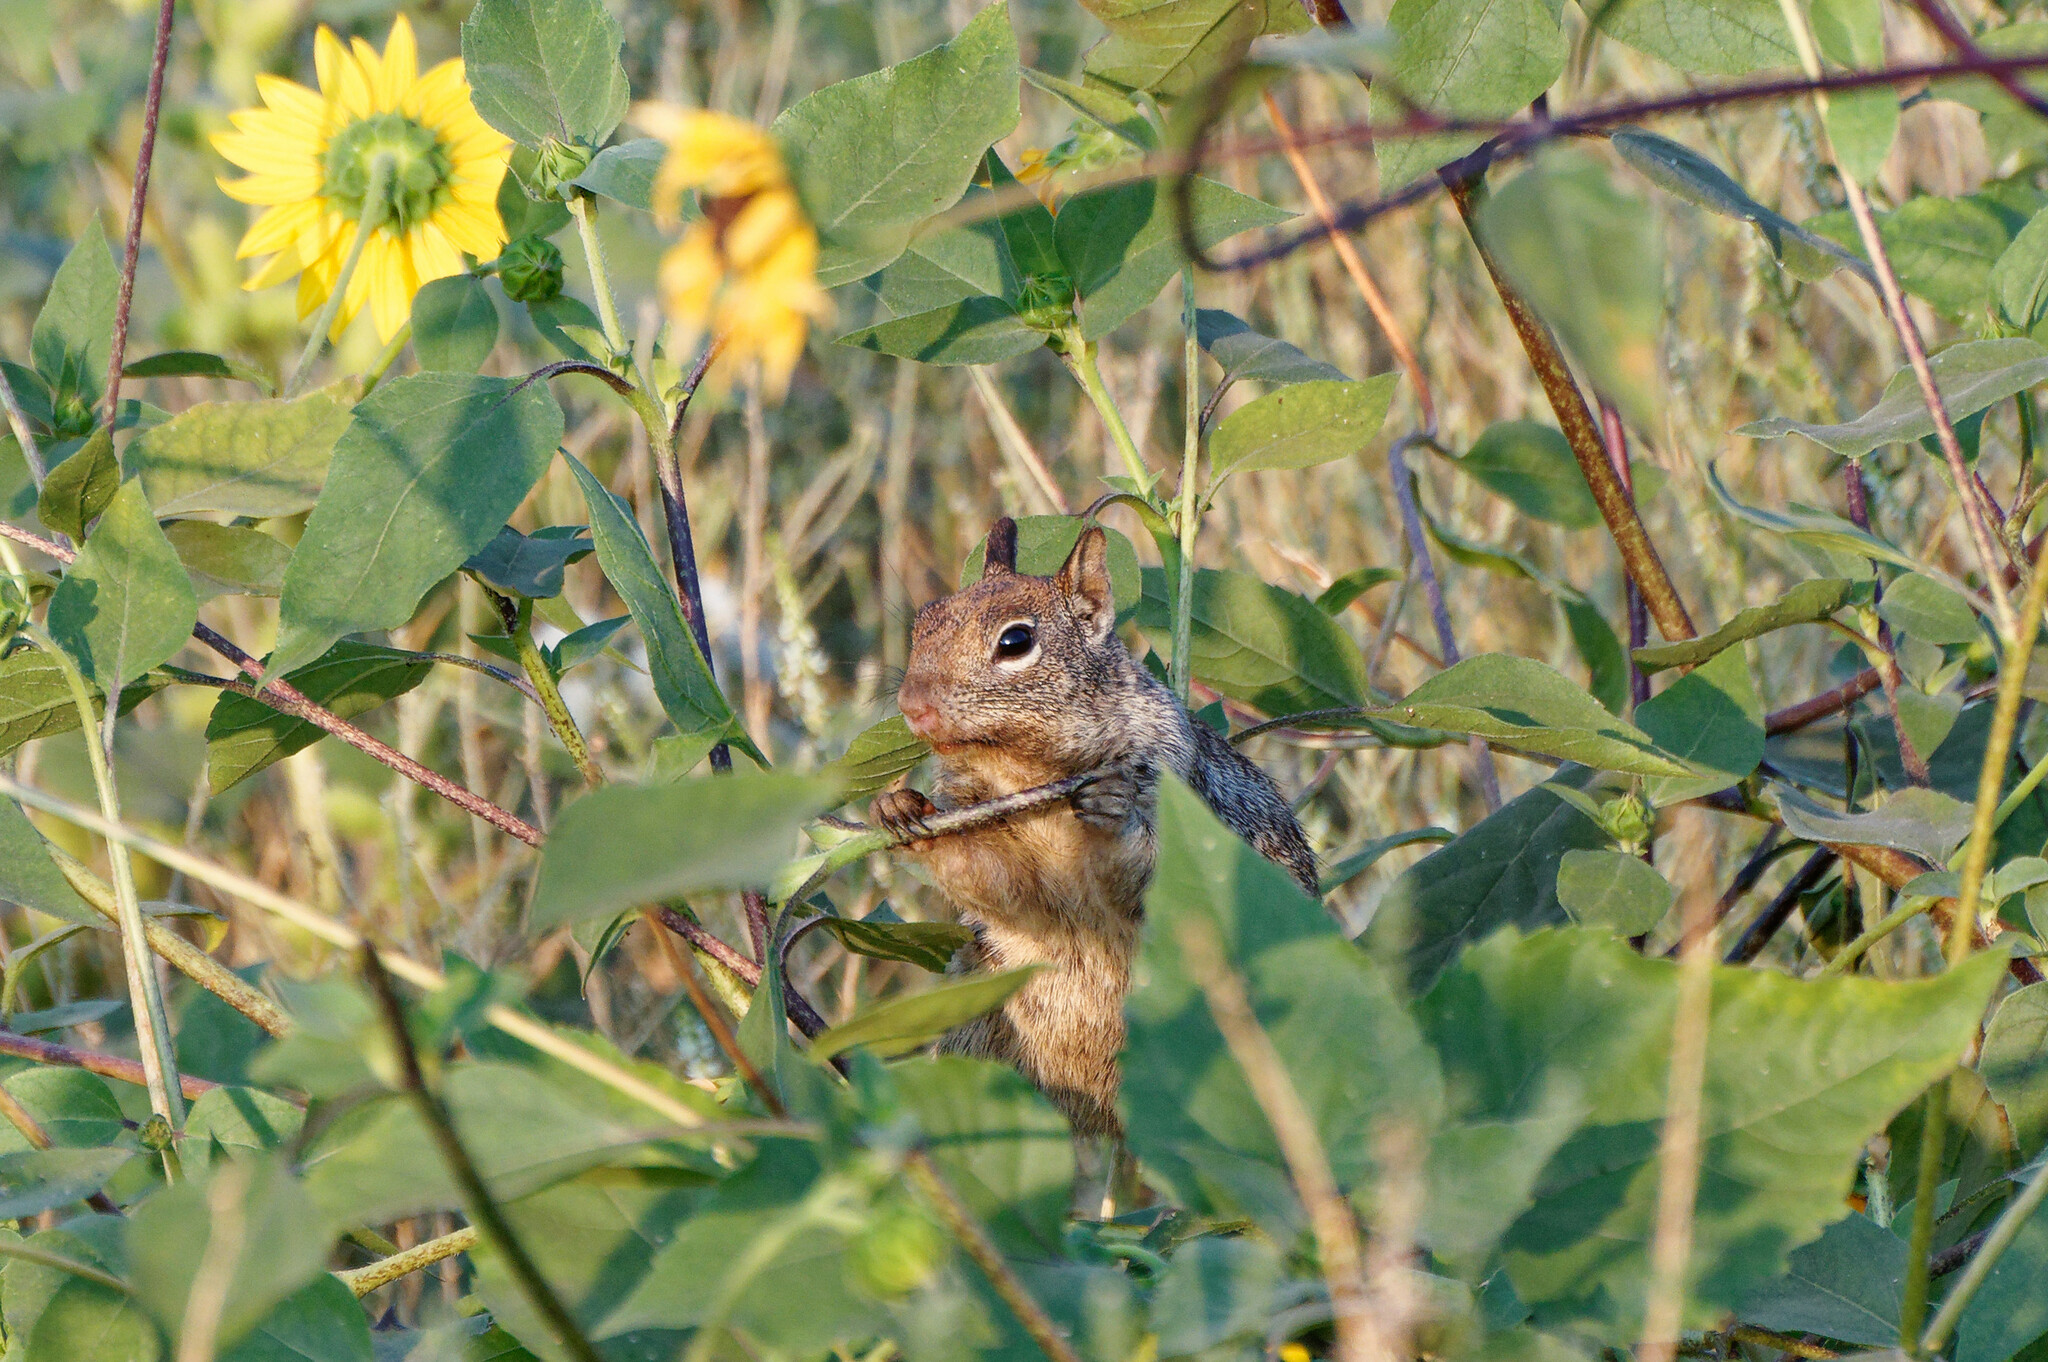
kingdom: Animalia
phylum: Chordata
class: Mammalia
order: Rodentia
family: Sciuridae
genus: Otospermophilus
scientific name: Otospermophilus beecheyi
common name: California ground squirrel
